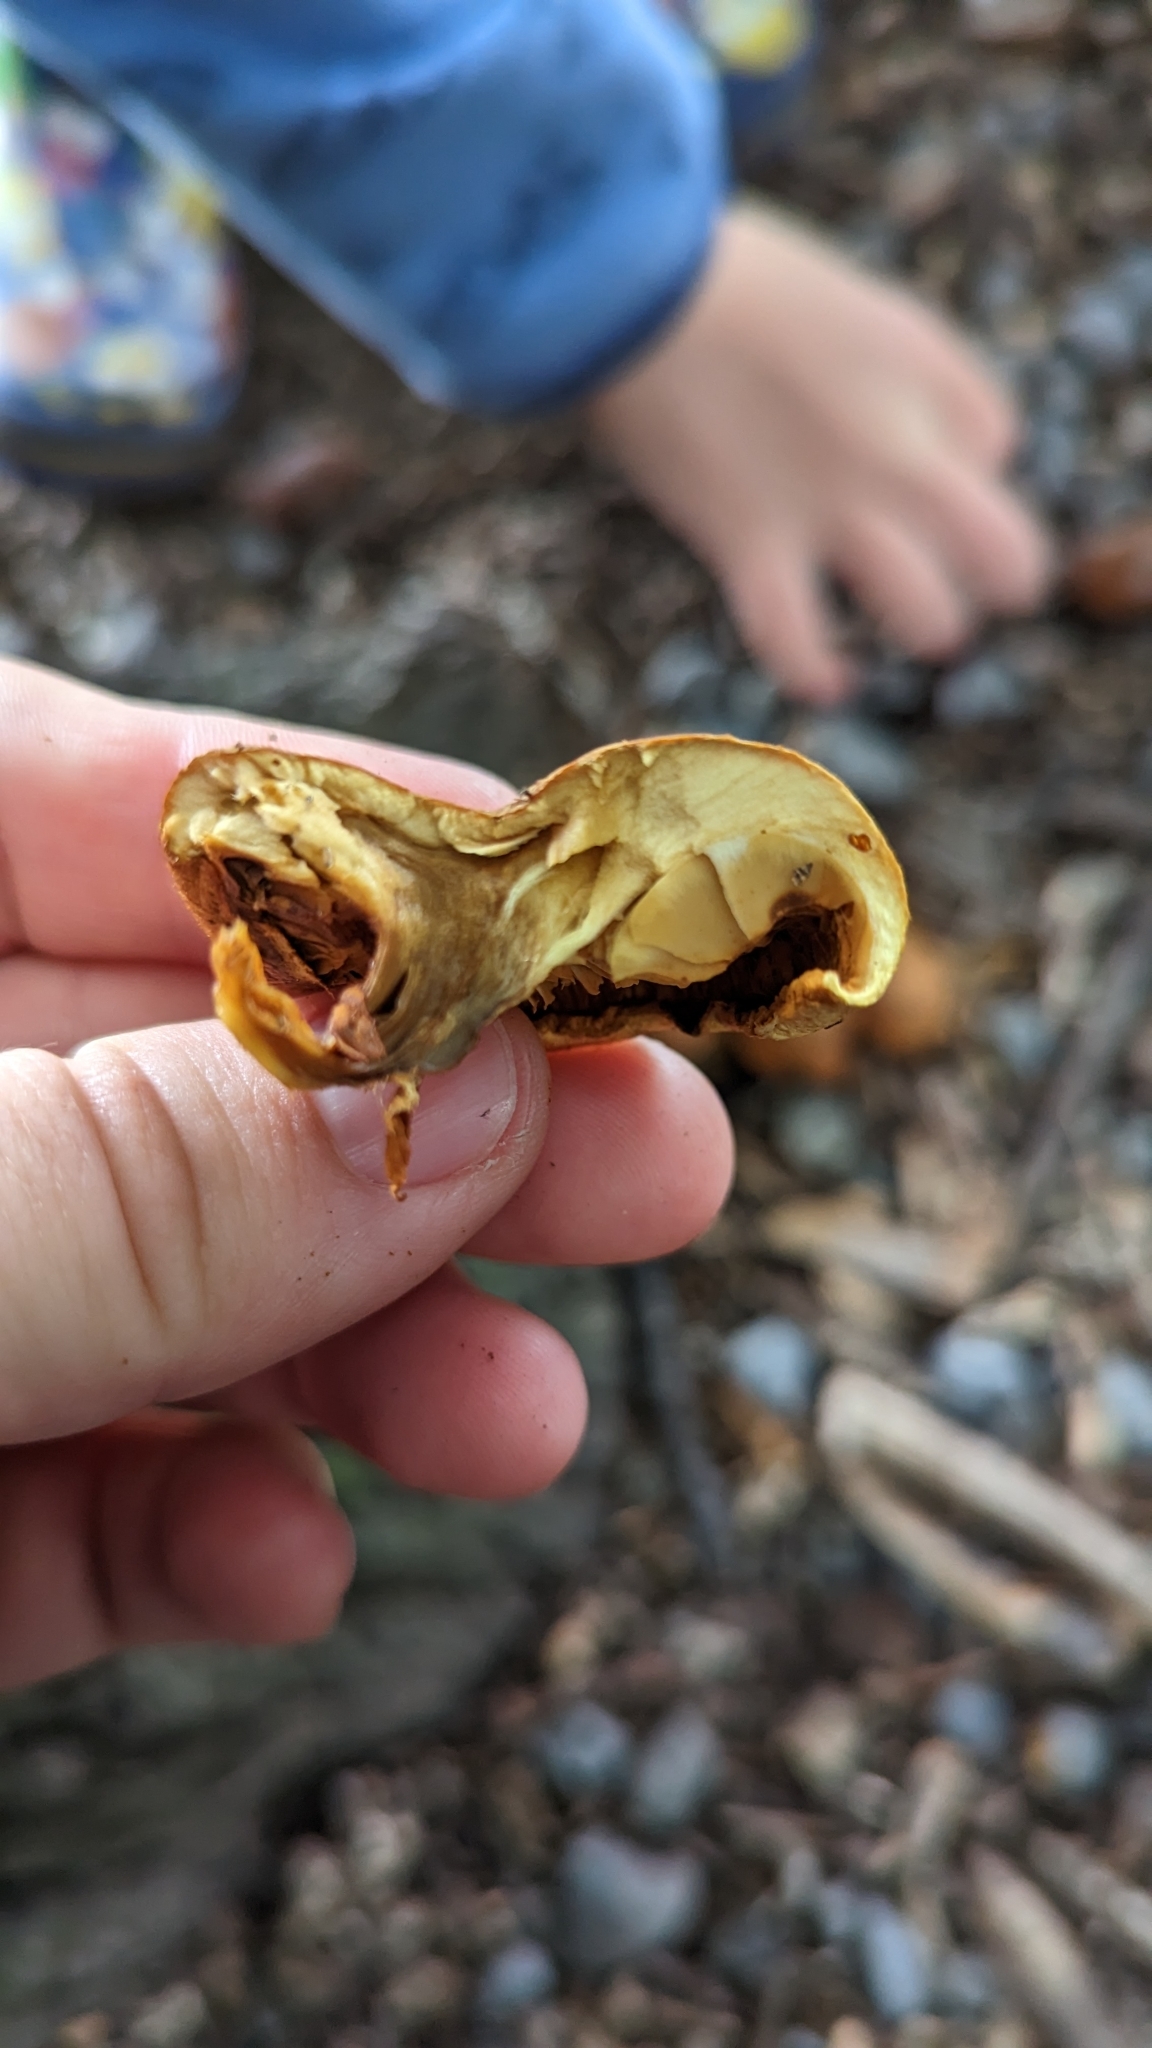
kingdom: Fungi
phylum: Basidiomycota
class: Agaricomycetes
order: Agaricales
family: Hymenogastraceae
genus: Gymnopilus
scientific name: Gymnopilus junonius
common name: Spectacular rustgill
